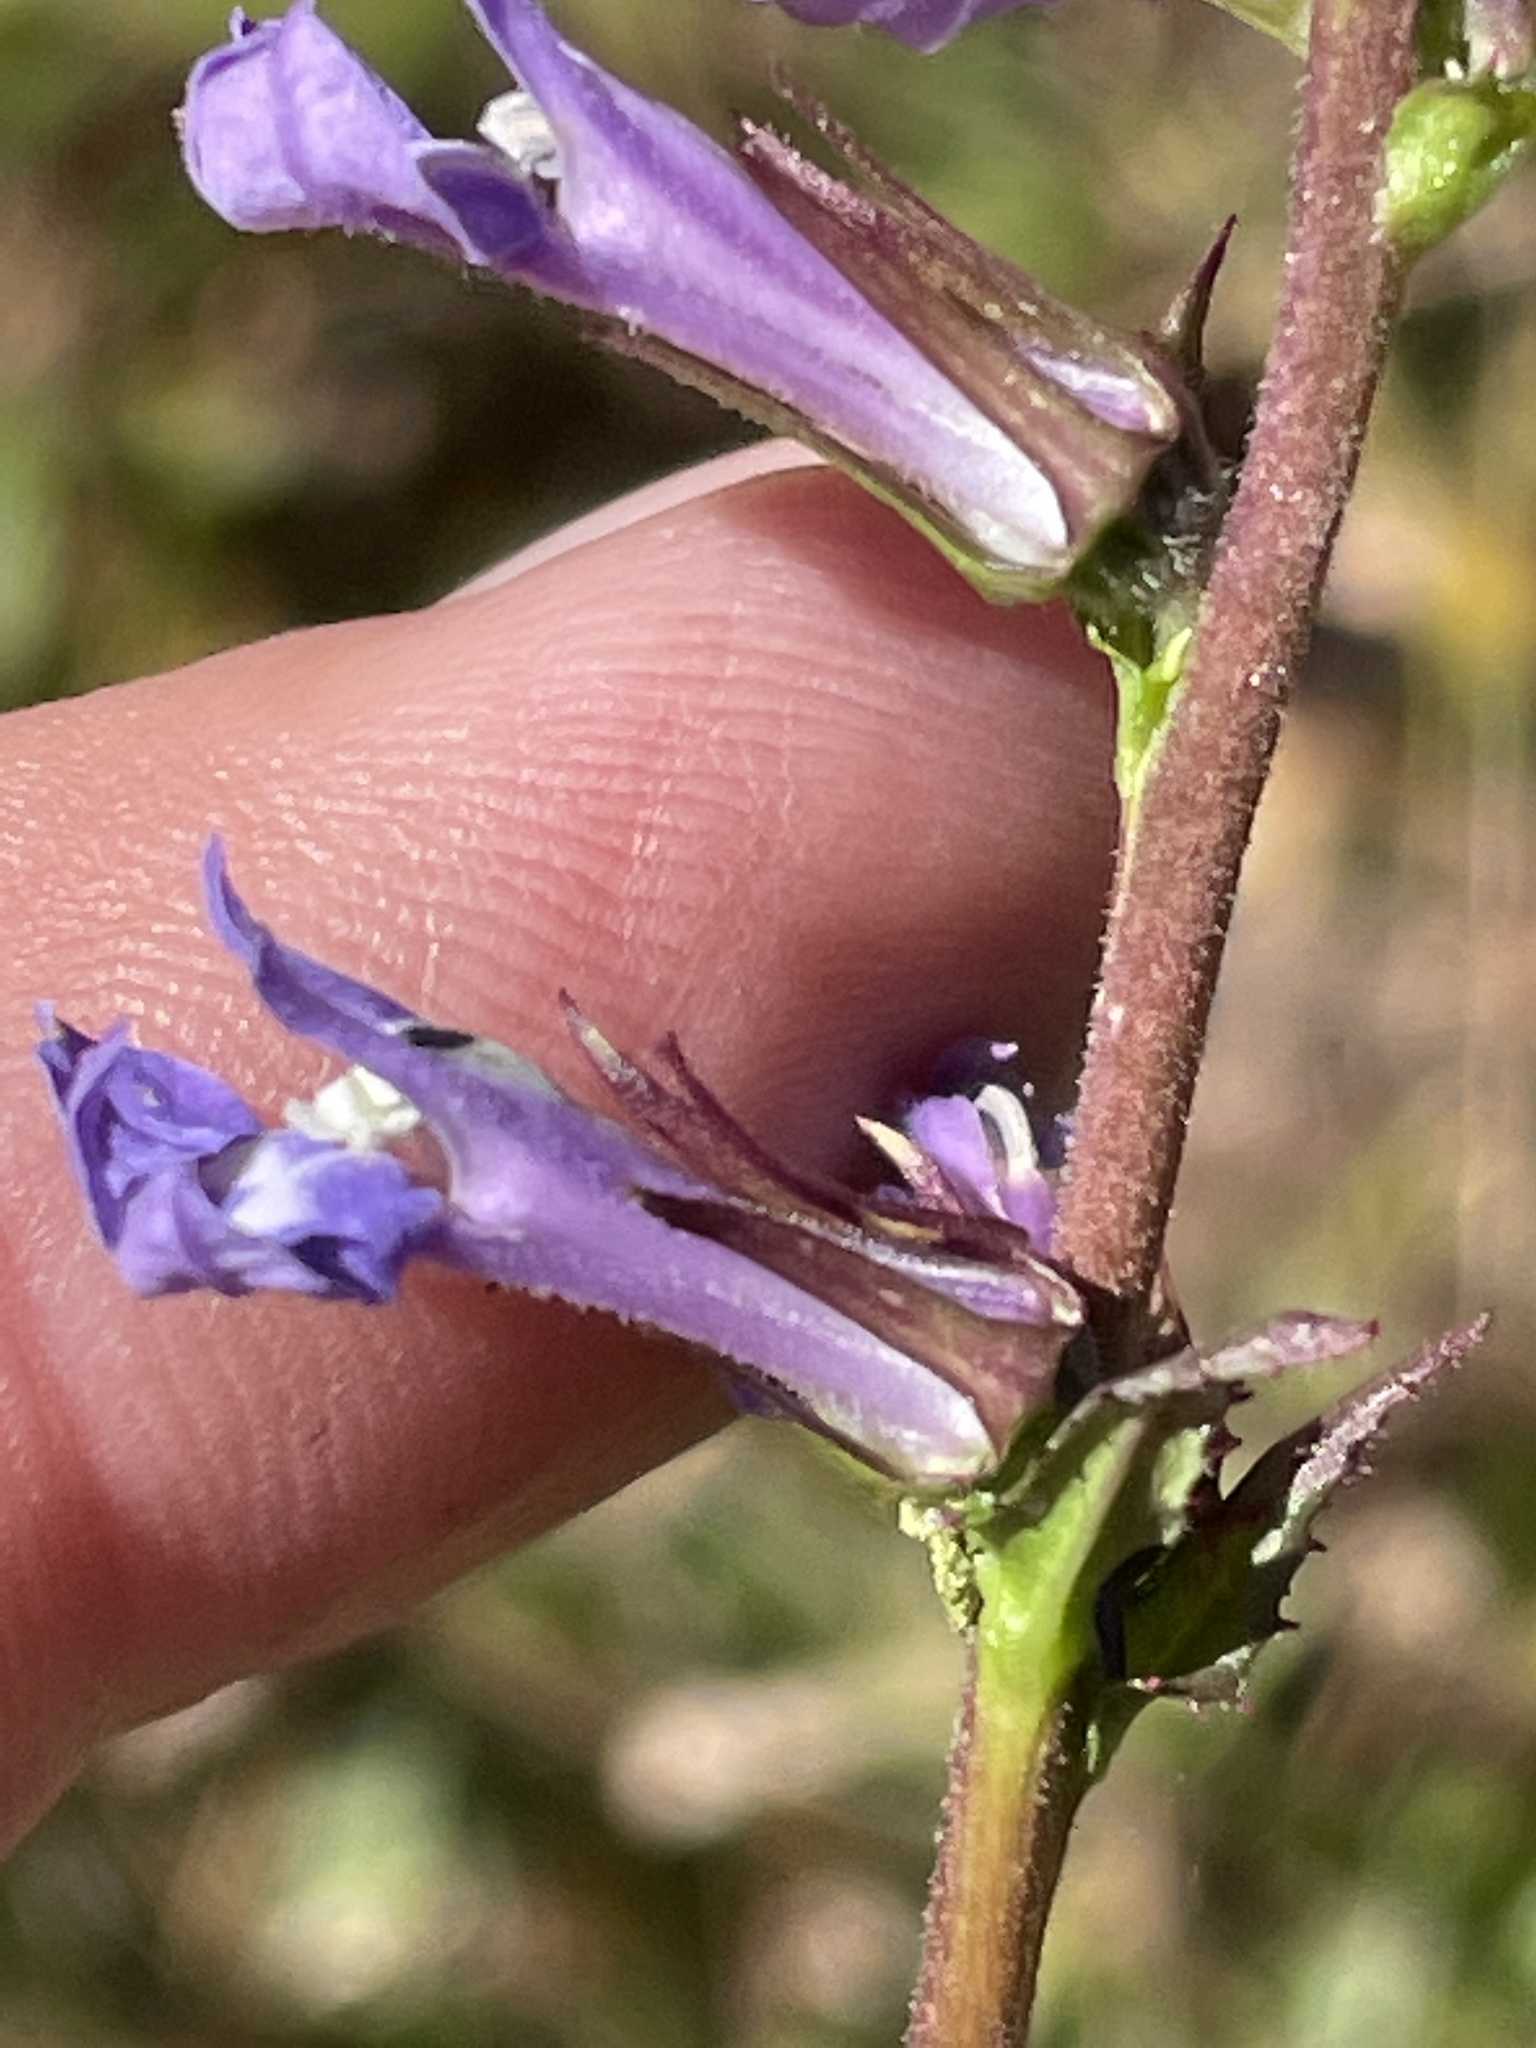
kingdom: Plantae
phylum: Tracheophyta
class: Magnoliopsida
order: Asterales
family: Campanulaceae
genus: Lobelia
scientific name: Lobelia puberula
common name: Purple dewdrop
